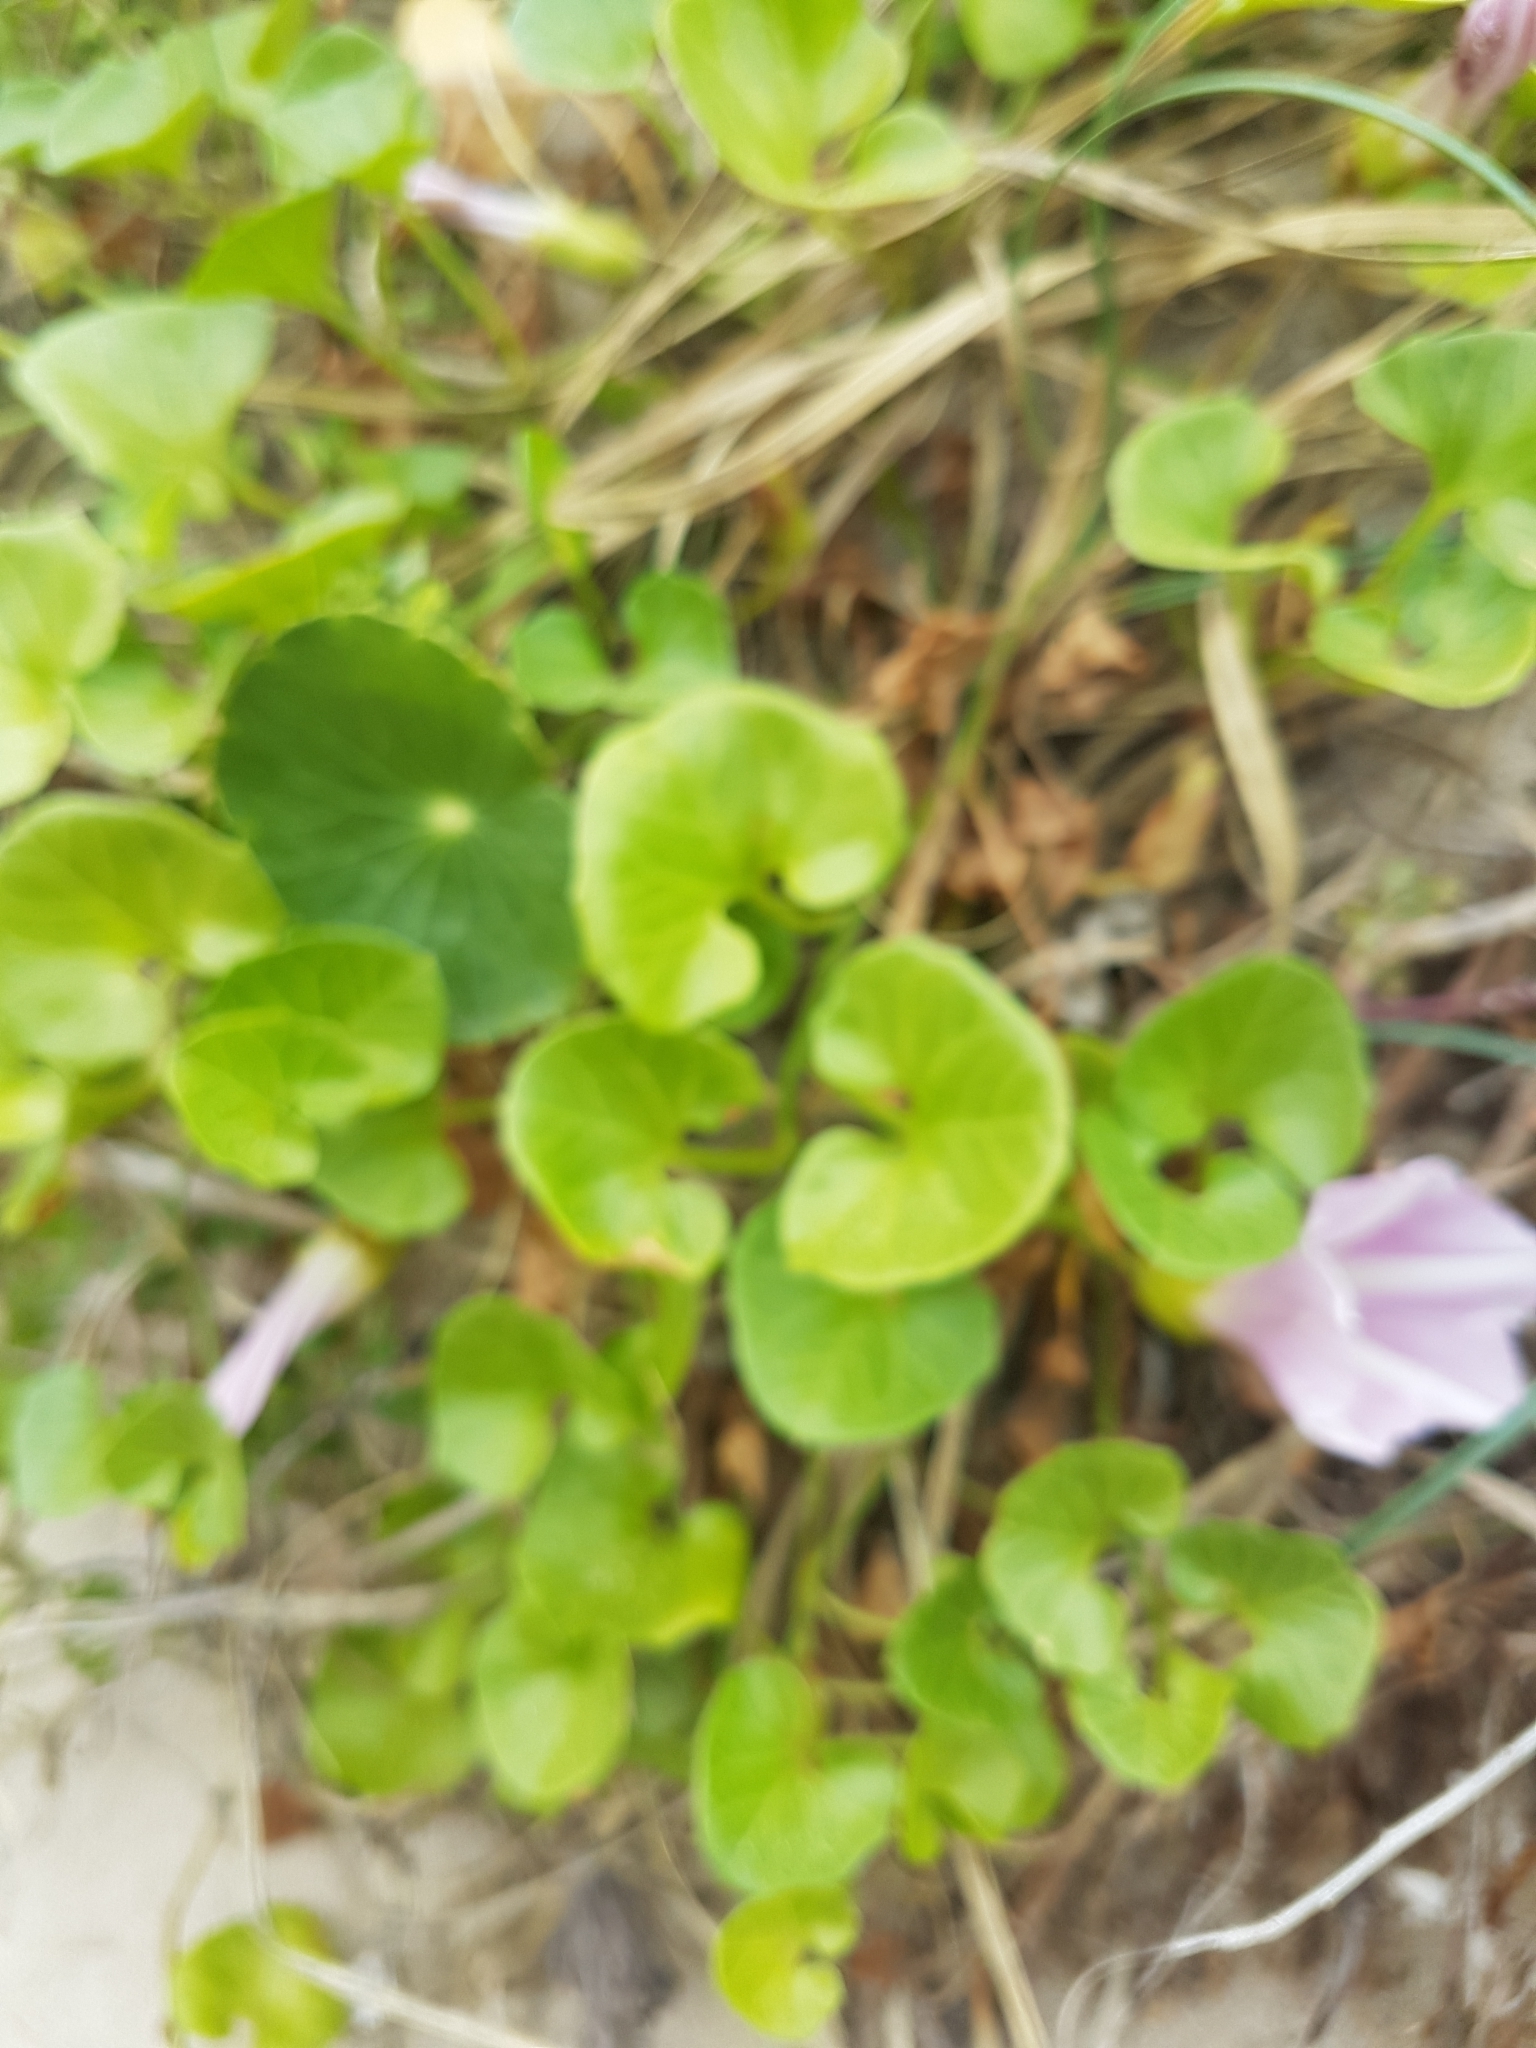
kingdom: Plantae
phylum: Tracheophyta
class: Magnoliopsida
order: Solanales
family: Convolvulaceae
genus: Calystegia
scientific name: Calystegia soldanella
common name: Sea bindweed
